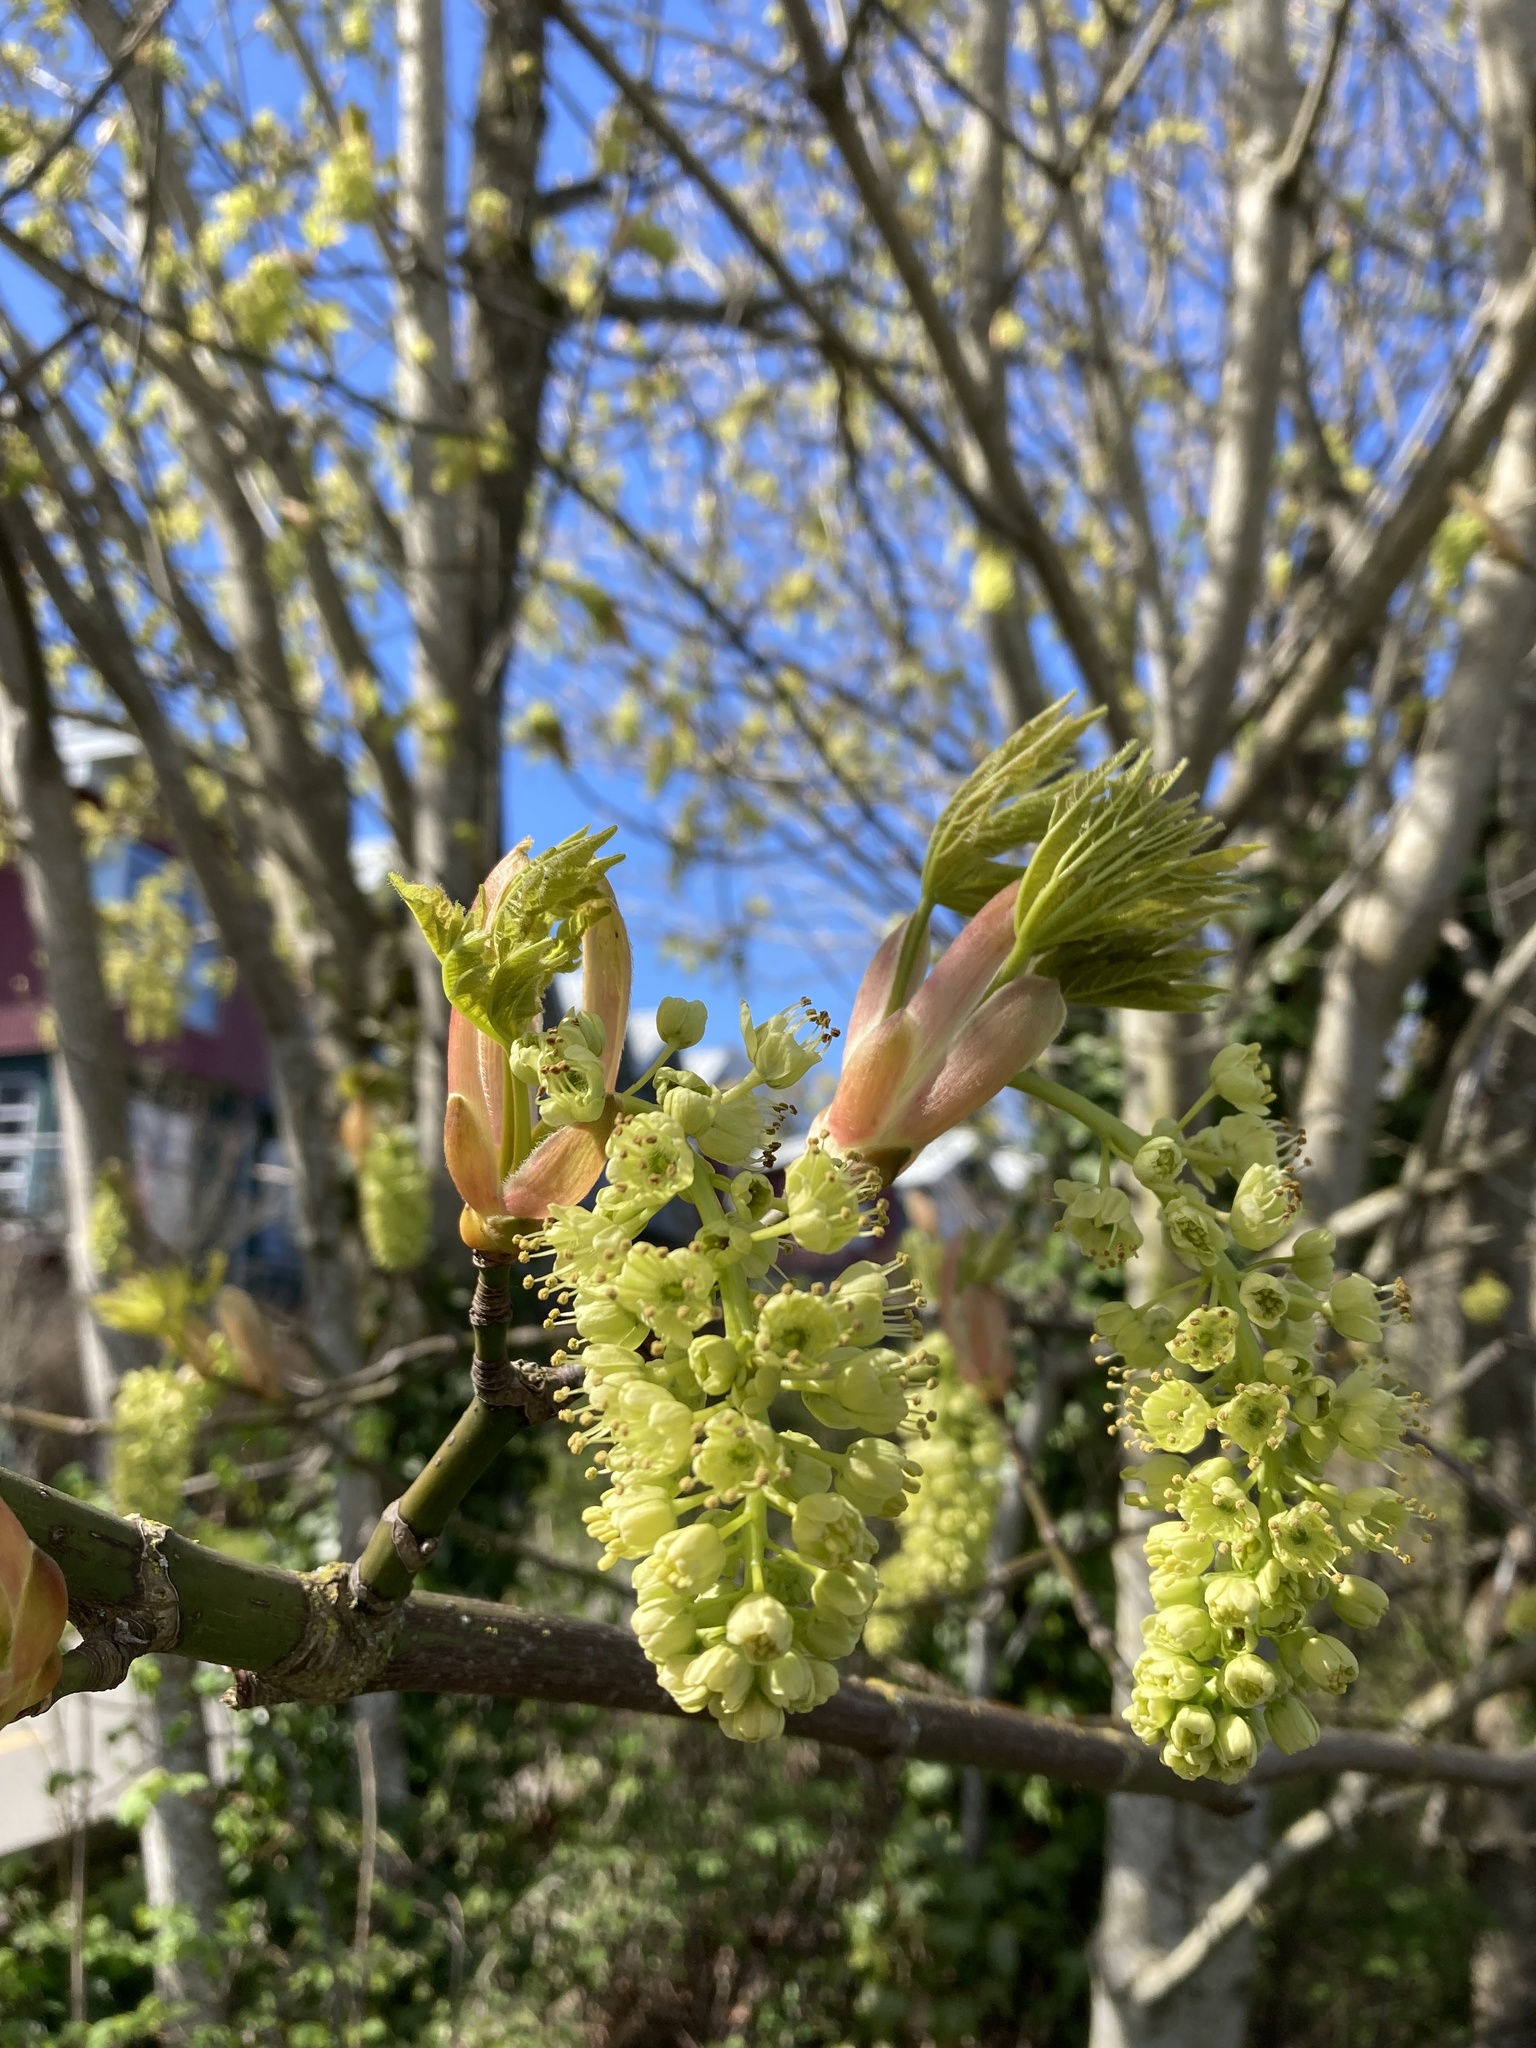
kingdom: Plantae
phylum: Tracheophyta
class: Magnoliopsida
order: Sapindales
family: Sapindaceae
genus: Acer
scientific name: Acer macrophyllum
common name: Oregon maple
